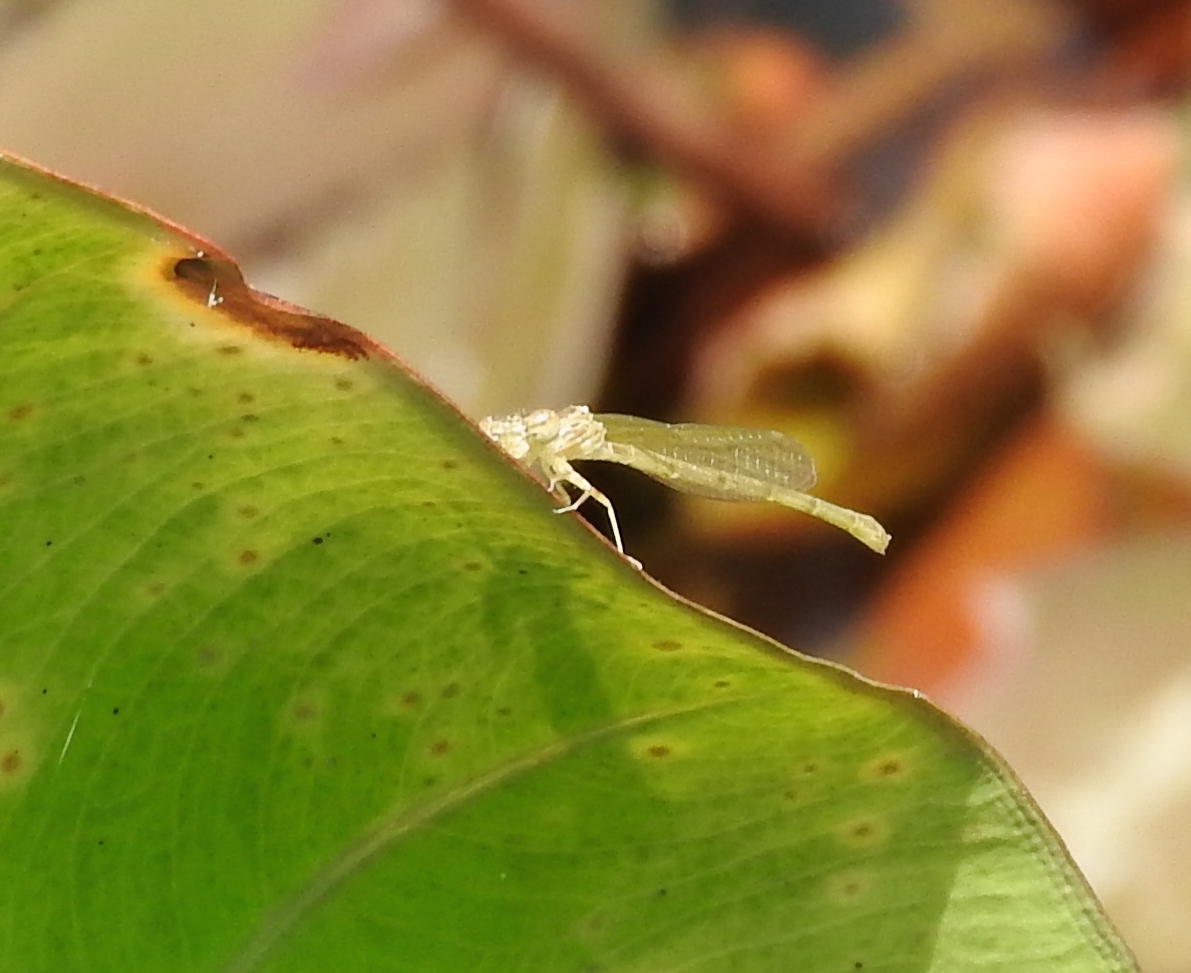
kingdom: Animalia
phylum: Arthropoda
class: Insecta
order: Odonata
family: Coenagrionidae
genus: Telebasis
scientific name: Telebasis
